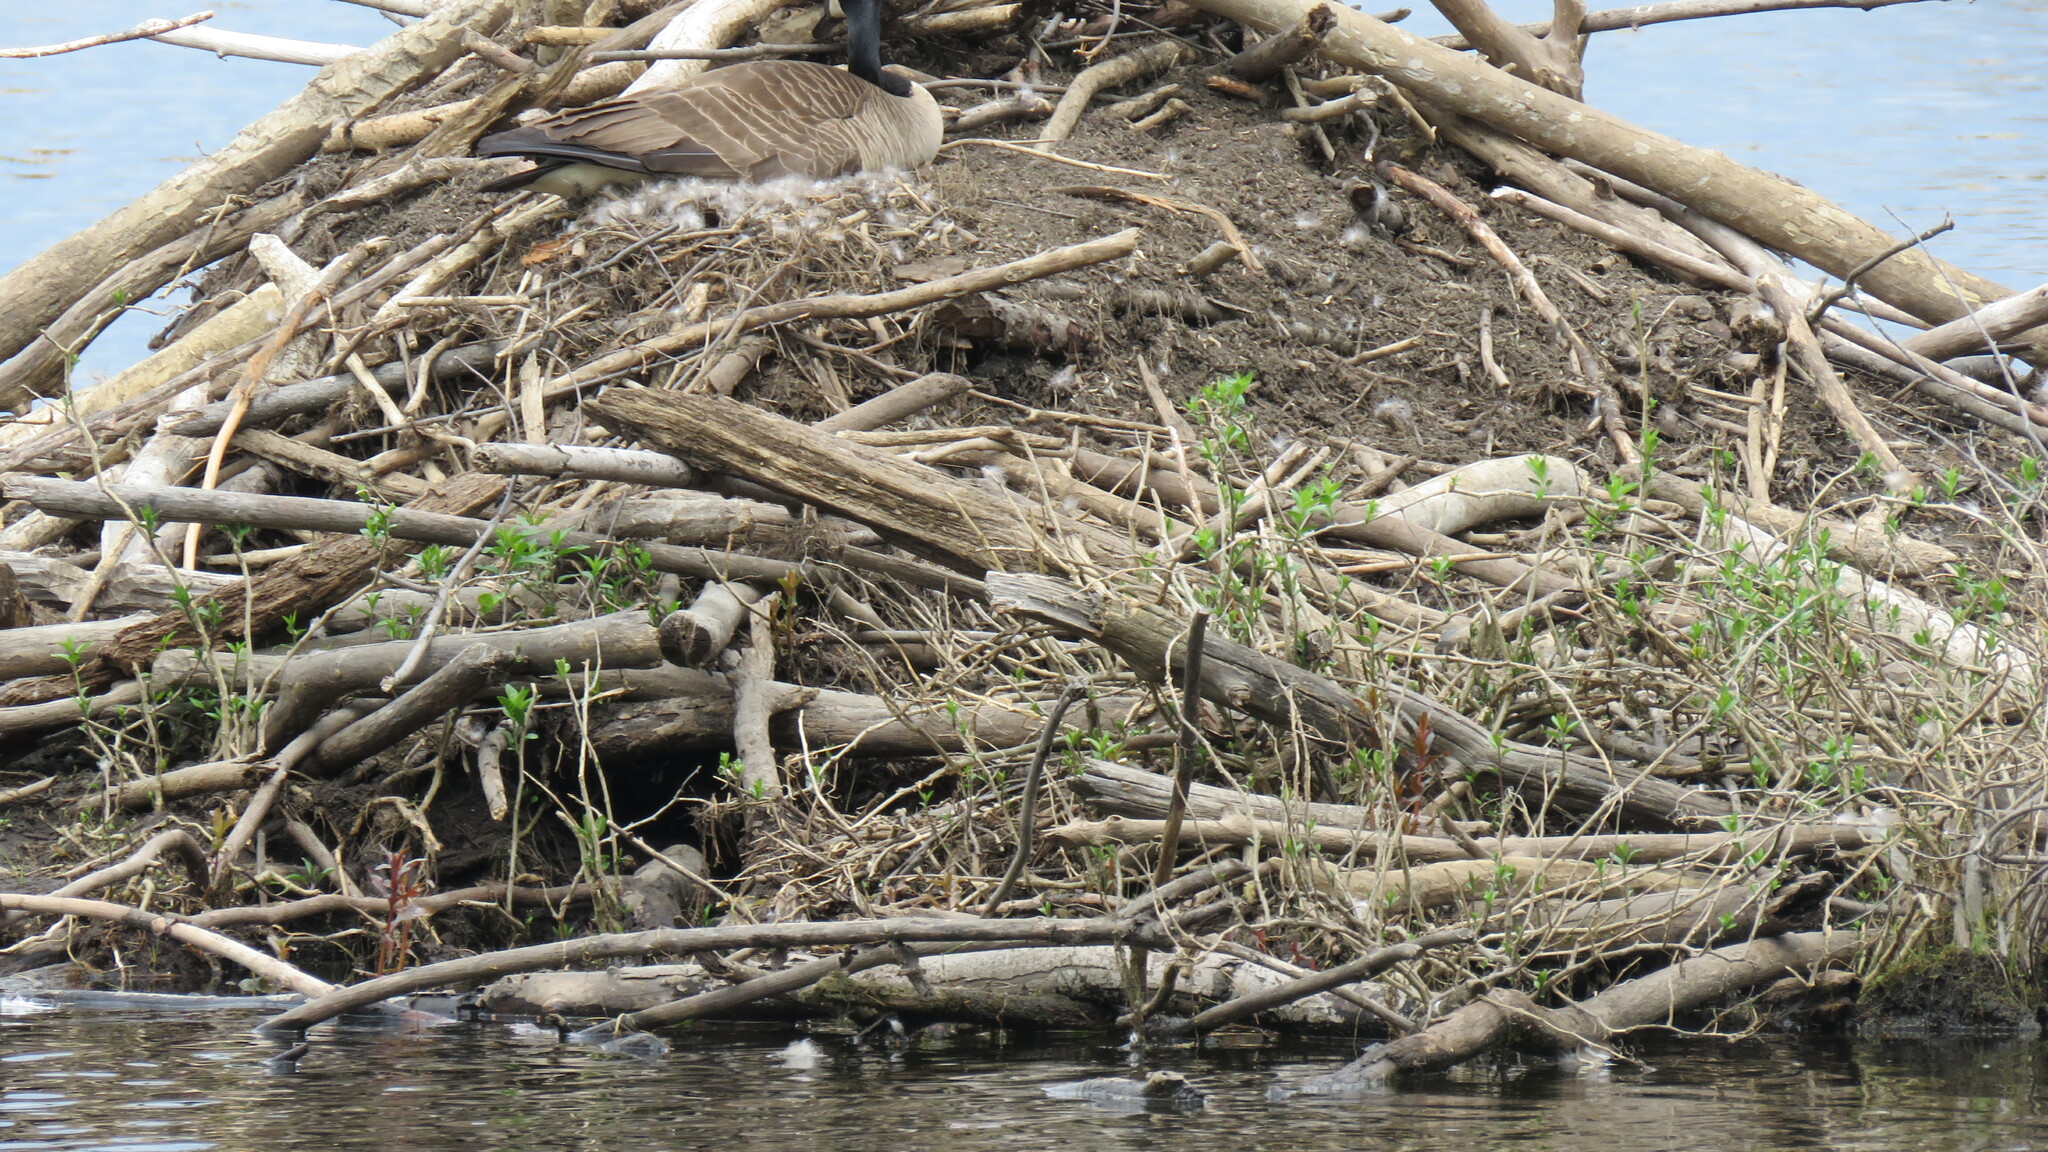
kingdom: Animalia
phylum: Chordata
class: Aves
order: Anseriformes
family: Anatidae
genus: Branta
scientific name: Branta canadensis
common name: Canada goose
